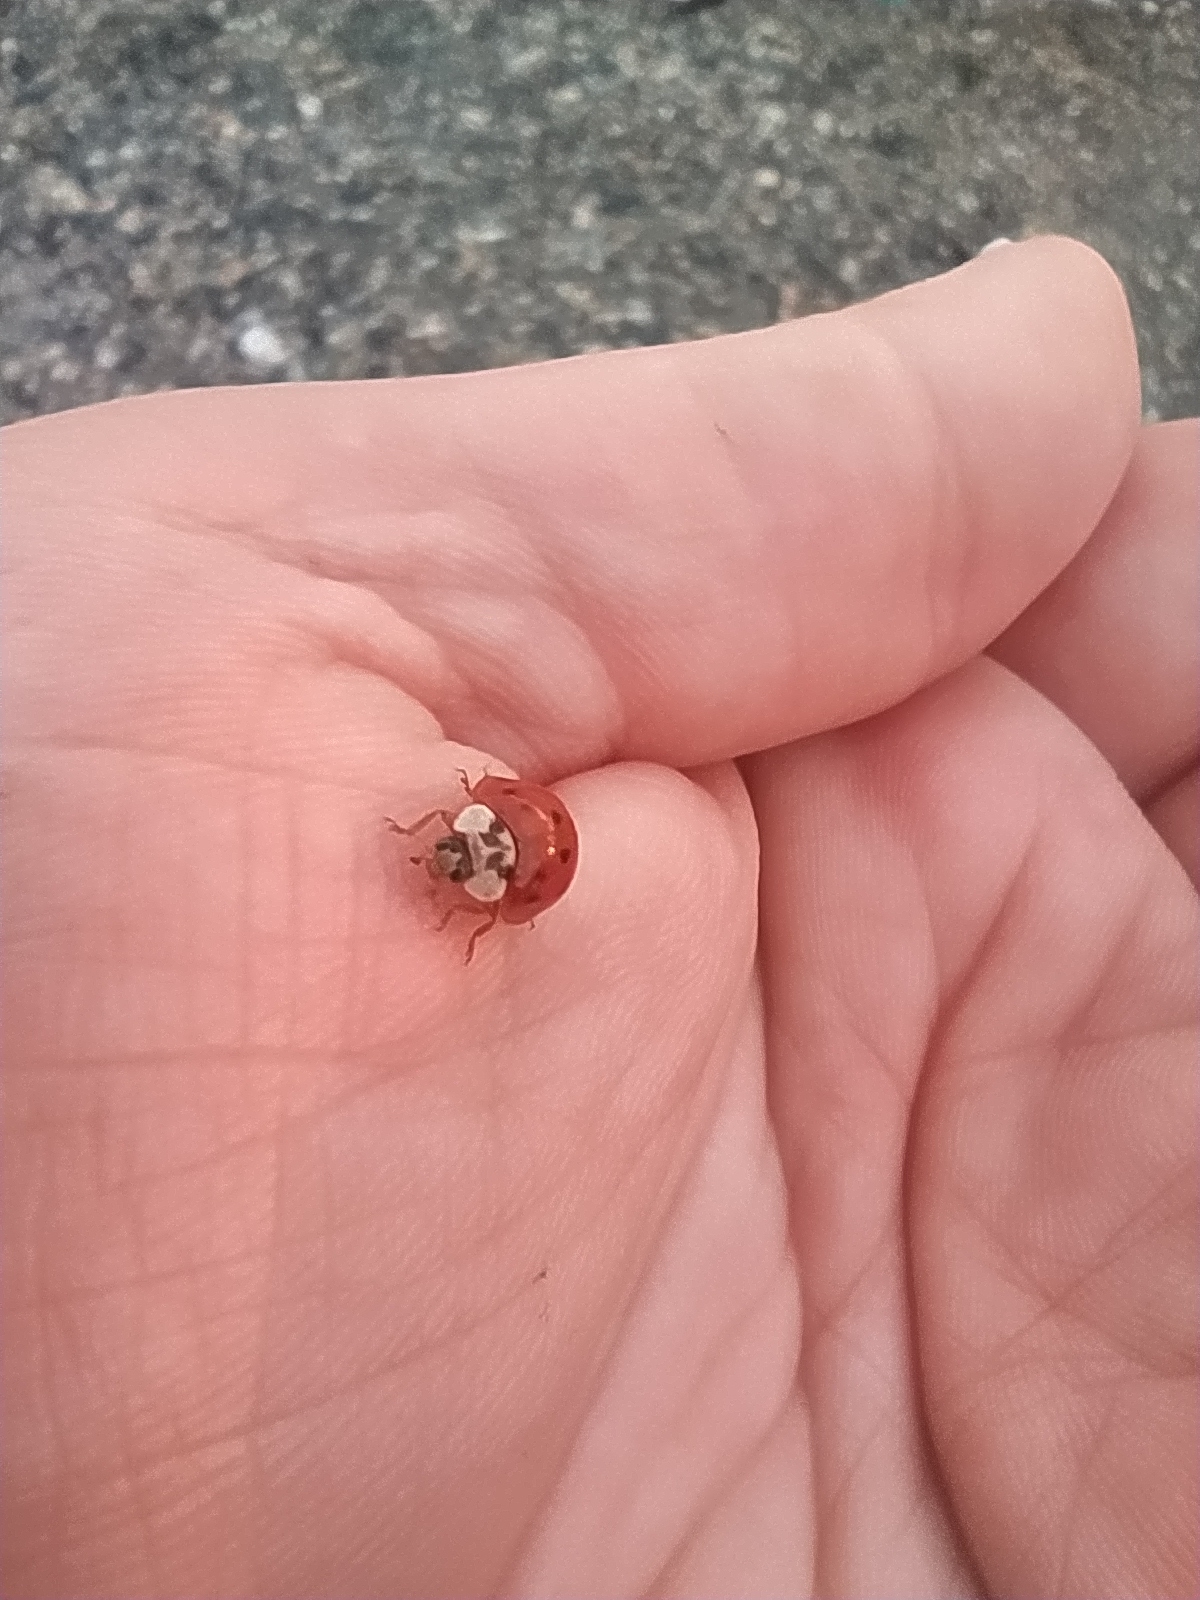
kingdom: Animalia
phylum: Arthropoda
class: Insecta
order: Coleoptera
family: Coccinellidae
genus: Harmonia
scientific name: Harmonia axyridis
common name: Harlequin ladybird
